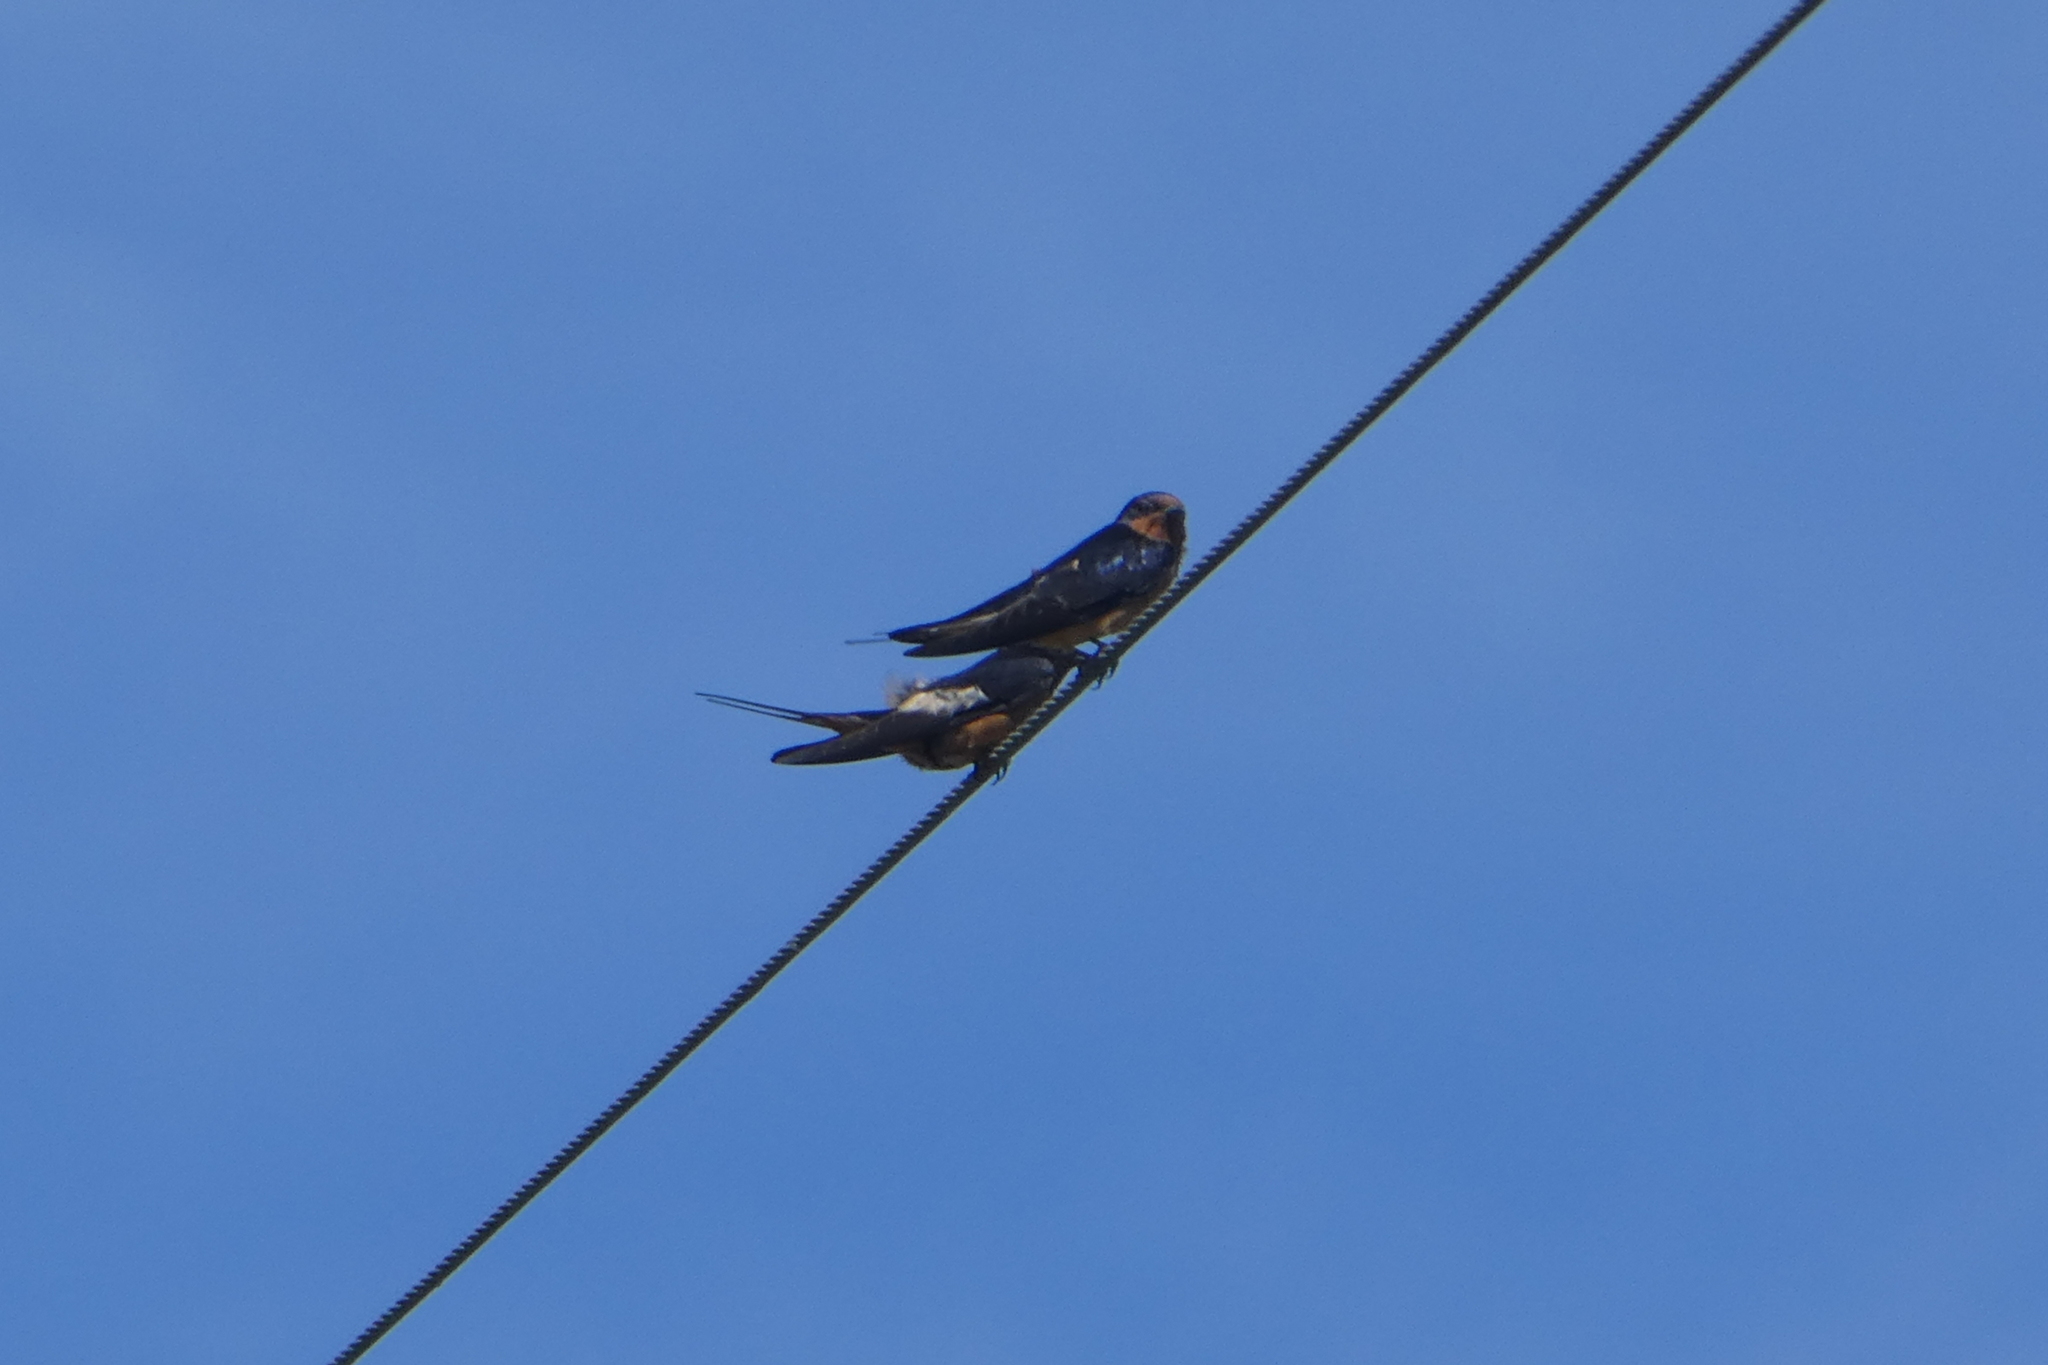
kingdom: Animalia
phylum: Chordata
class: Aves
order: Passeriformes
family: Hirundinidae
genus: Hirundo
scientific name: Hirundo rustica
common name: Barn swallow
